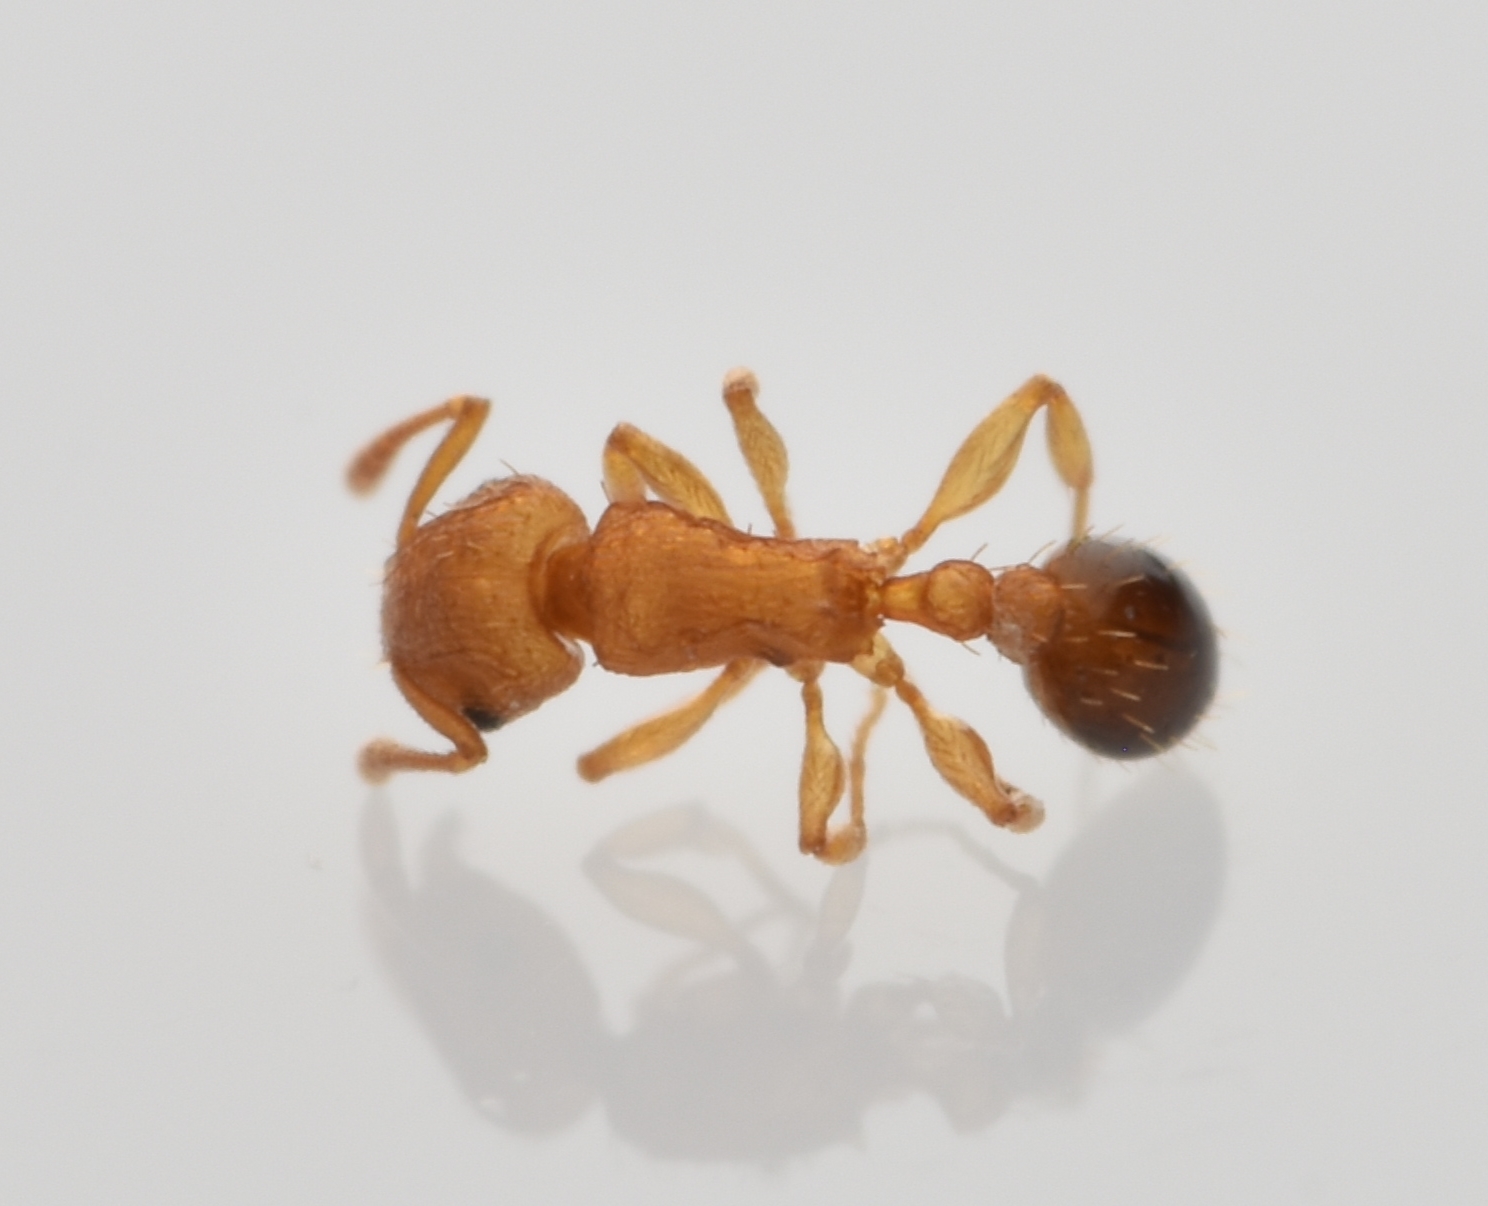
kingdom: Animalia
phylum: Arthropoda
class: Insecta
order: Hymenoptera
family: Formicidae
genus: Tetramorium
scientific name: Tetramorium simillimum
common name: Ant
